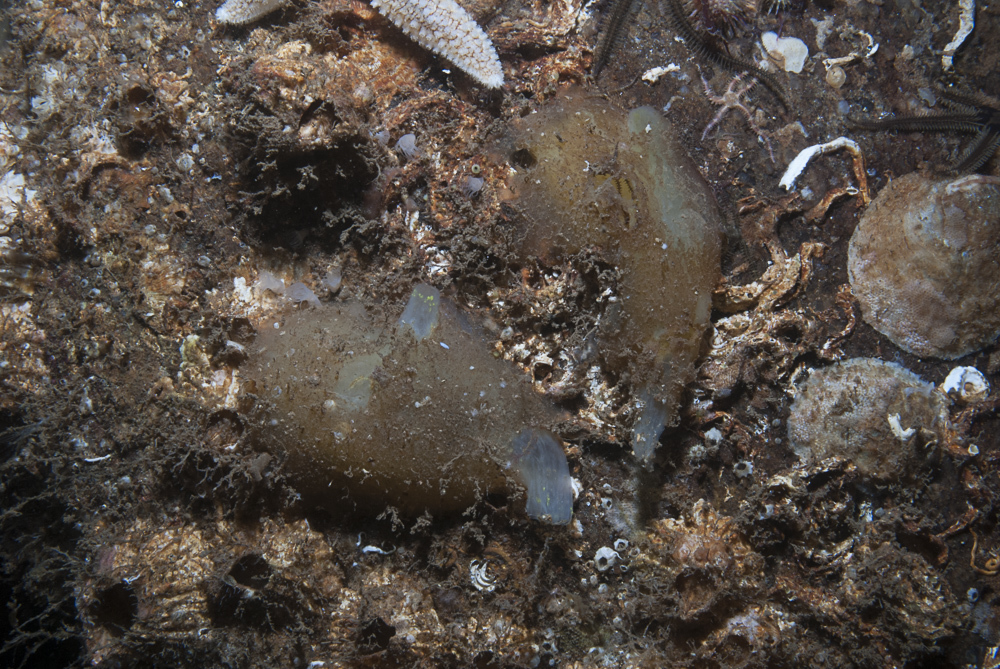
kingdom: Animalia
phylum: Chordata
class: Ascidiacea
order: Phlebobranchia
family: Ascidiidae
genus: Ascidia
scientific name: Ascidia conchilega
